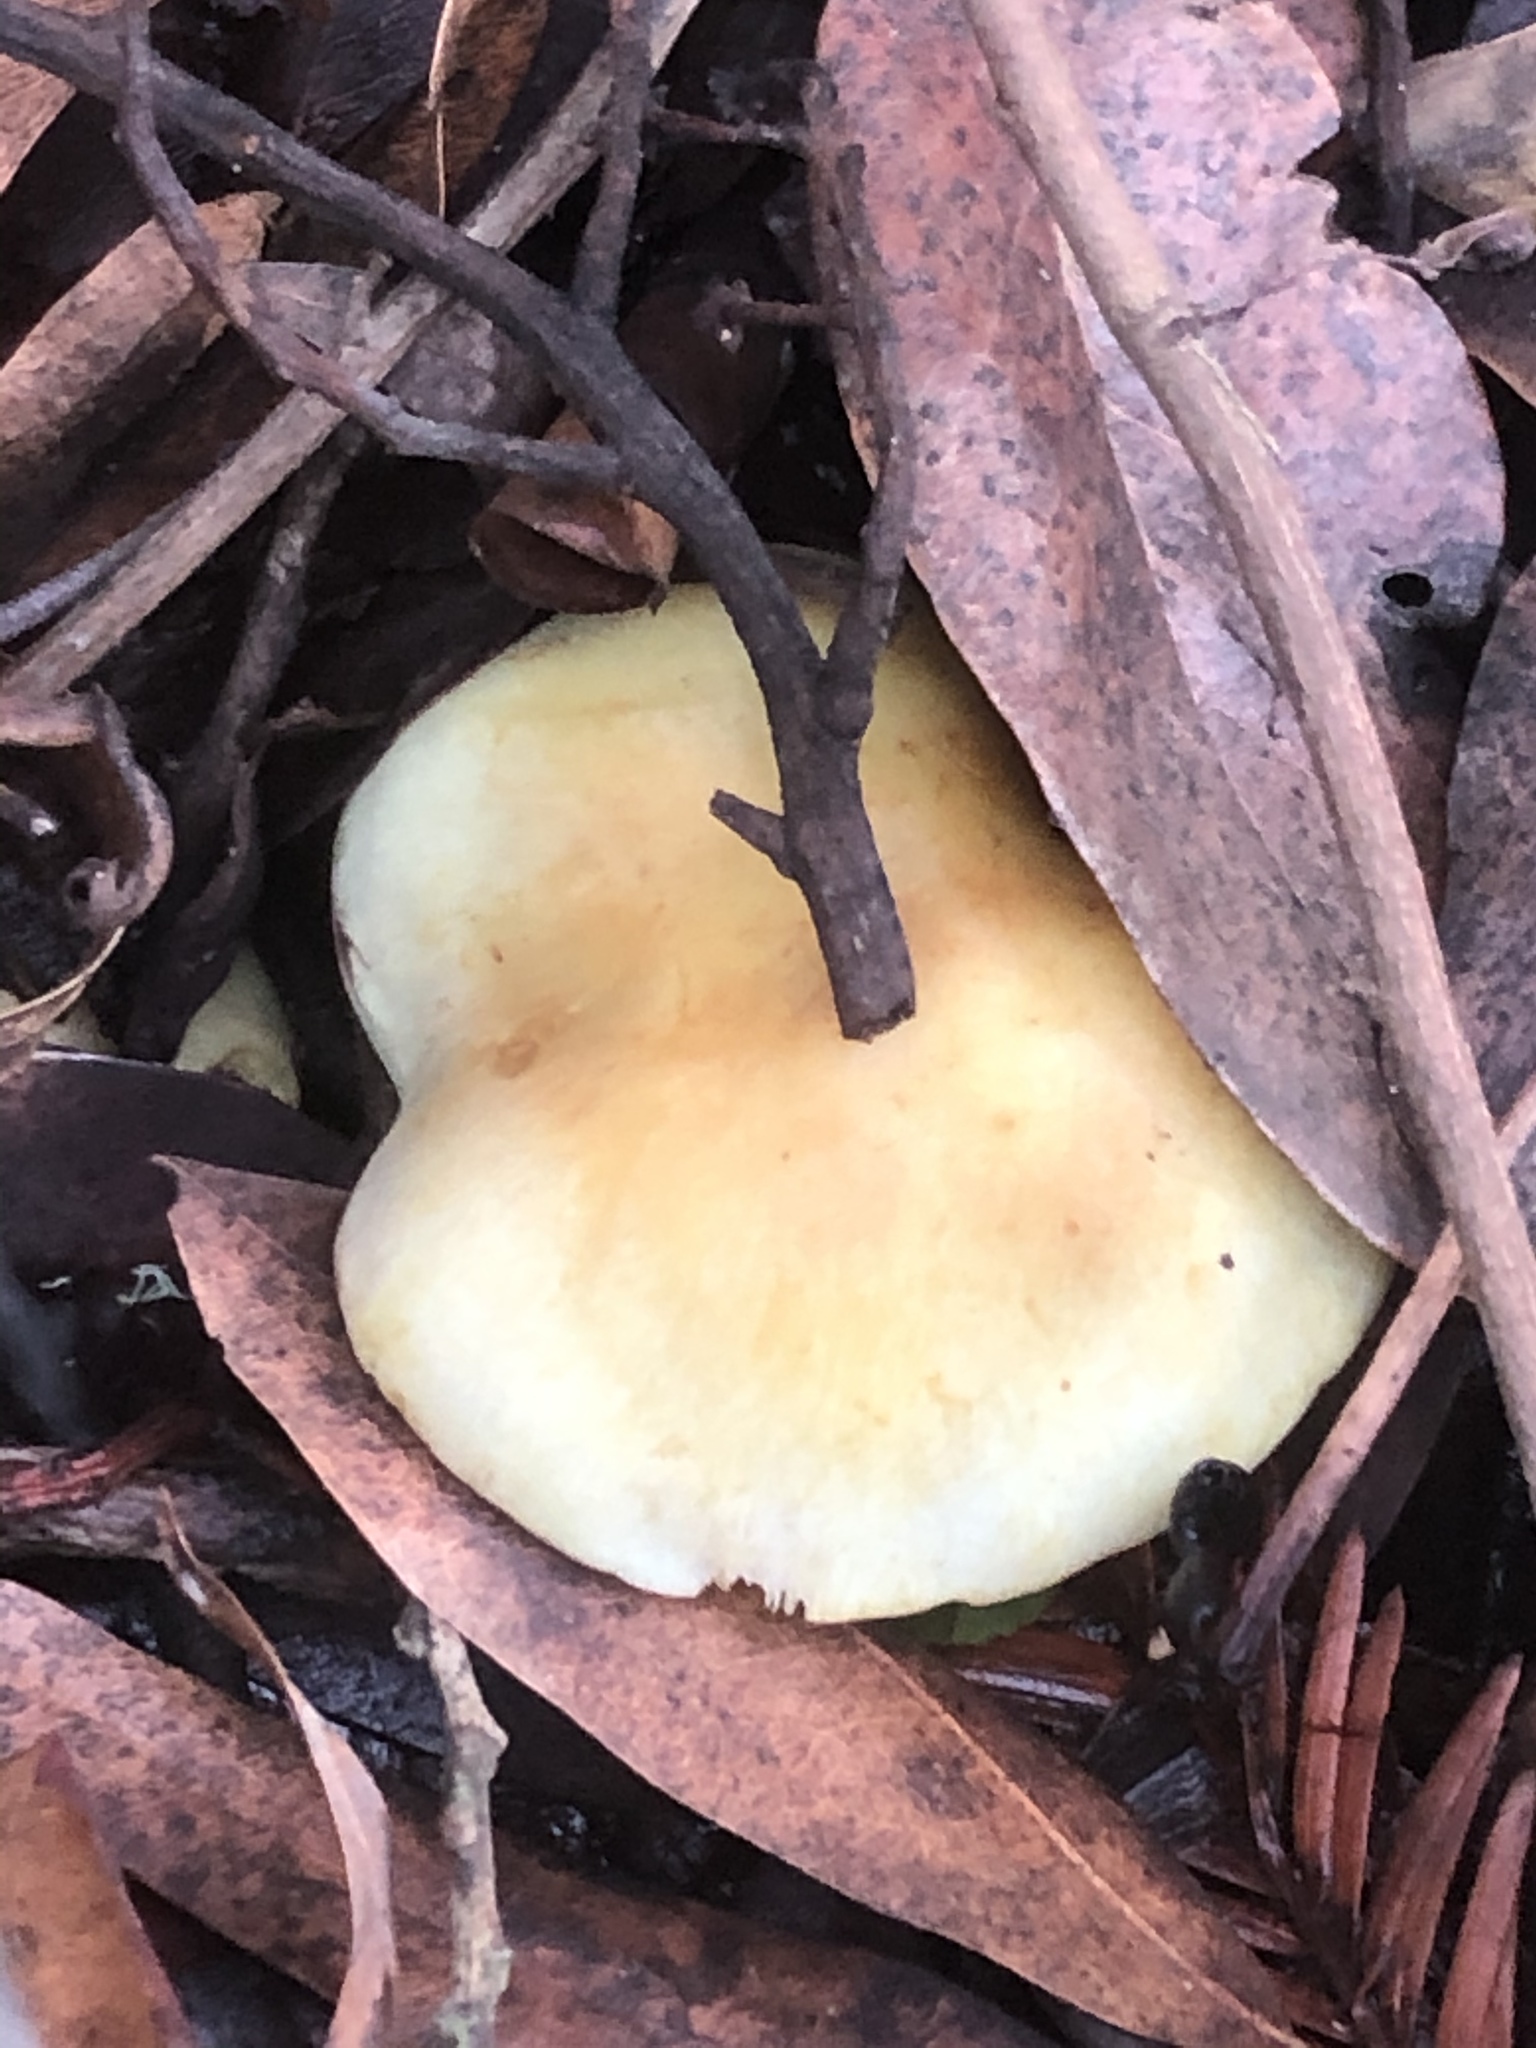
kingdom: Fungi
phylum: Basidiomycota
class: Agaricomycetes
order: Agaricales
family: Strophariaceae
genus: Hypholoma
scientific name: Hypholoma fasciculare
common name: Sulphur tuft
